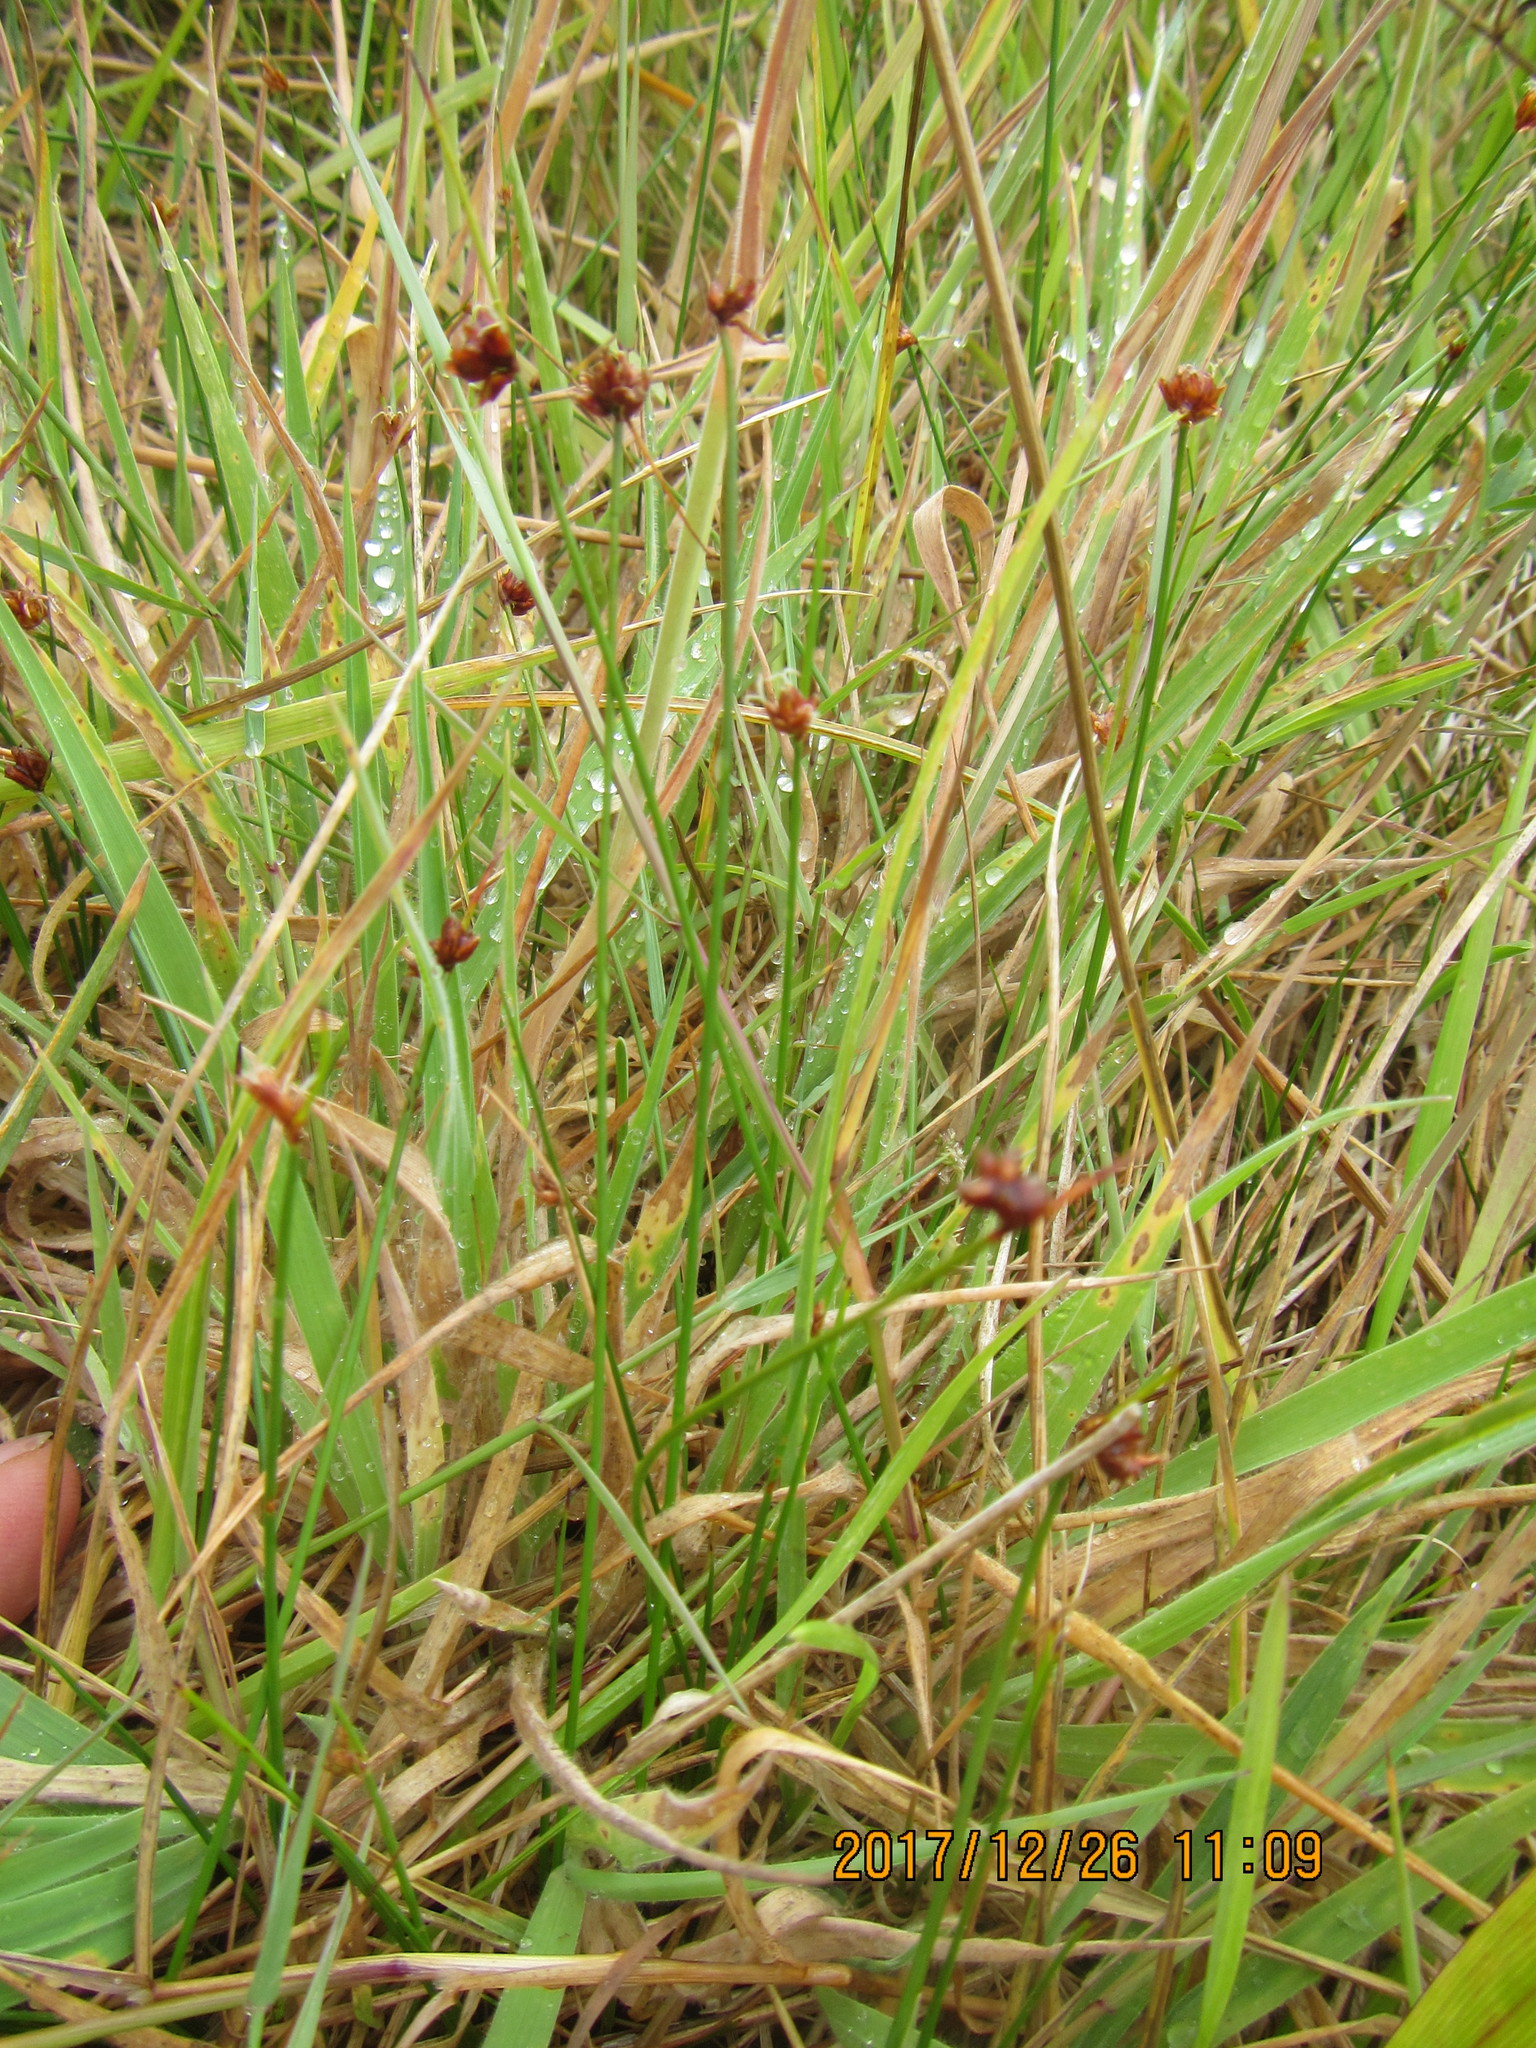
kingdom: Plantae
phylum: Tracheophyta
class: Liliopsida
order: Poales
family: Juncaceae
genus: Juncus
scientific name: Juncus acutus
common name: Sharp rush
